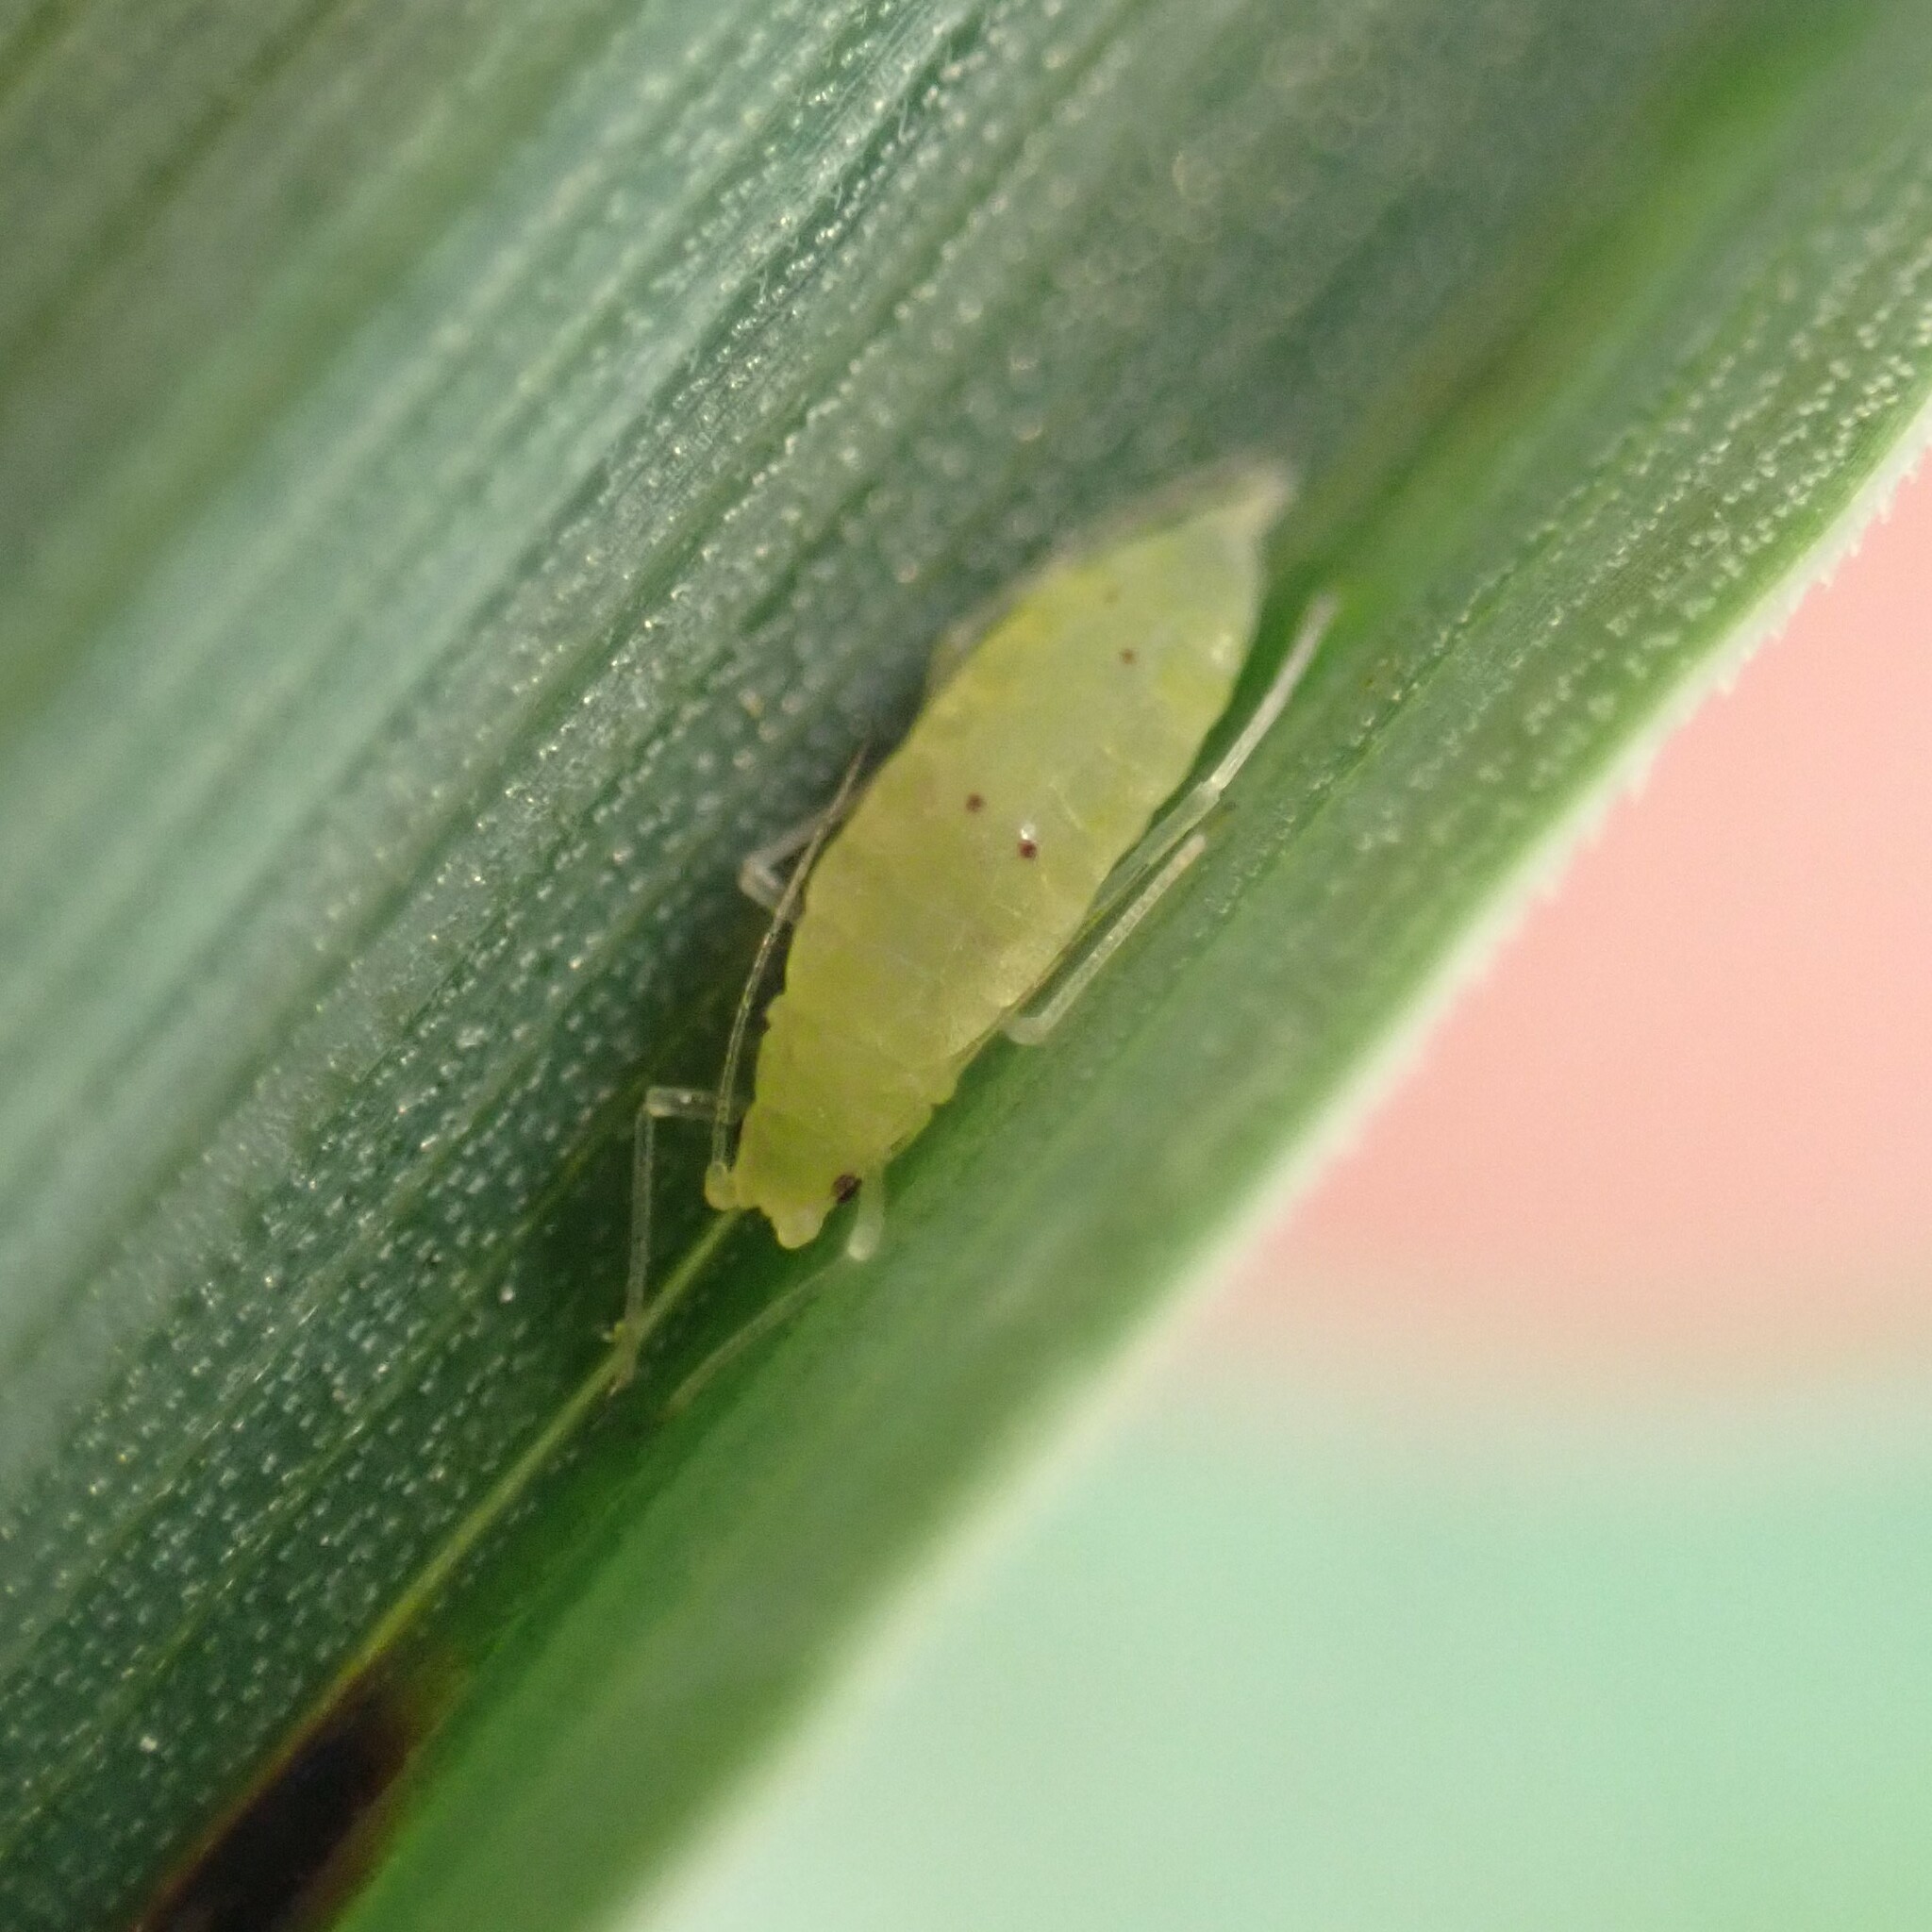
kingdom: Animalia
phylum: Arthropoda
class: Insecta
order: Hemiptera
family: Aphididae
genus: Hyalopteroides
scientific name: Hyalopteroides humilis
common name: Aphid
